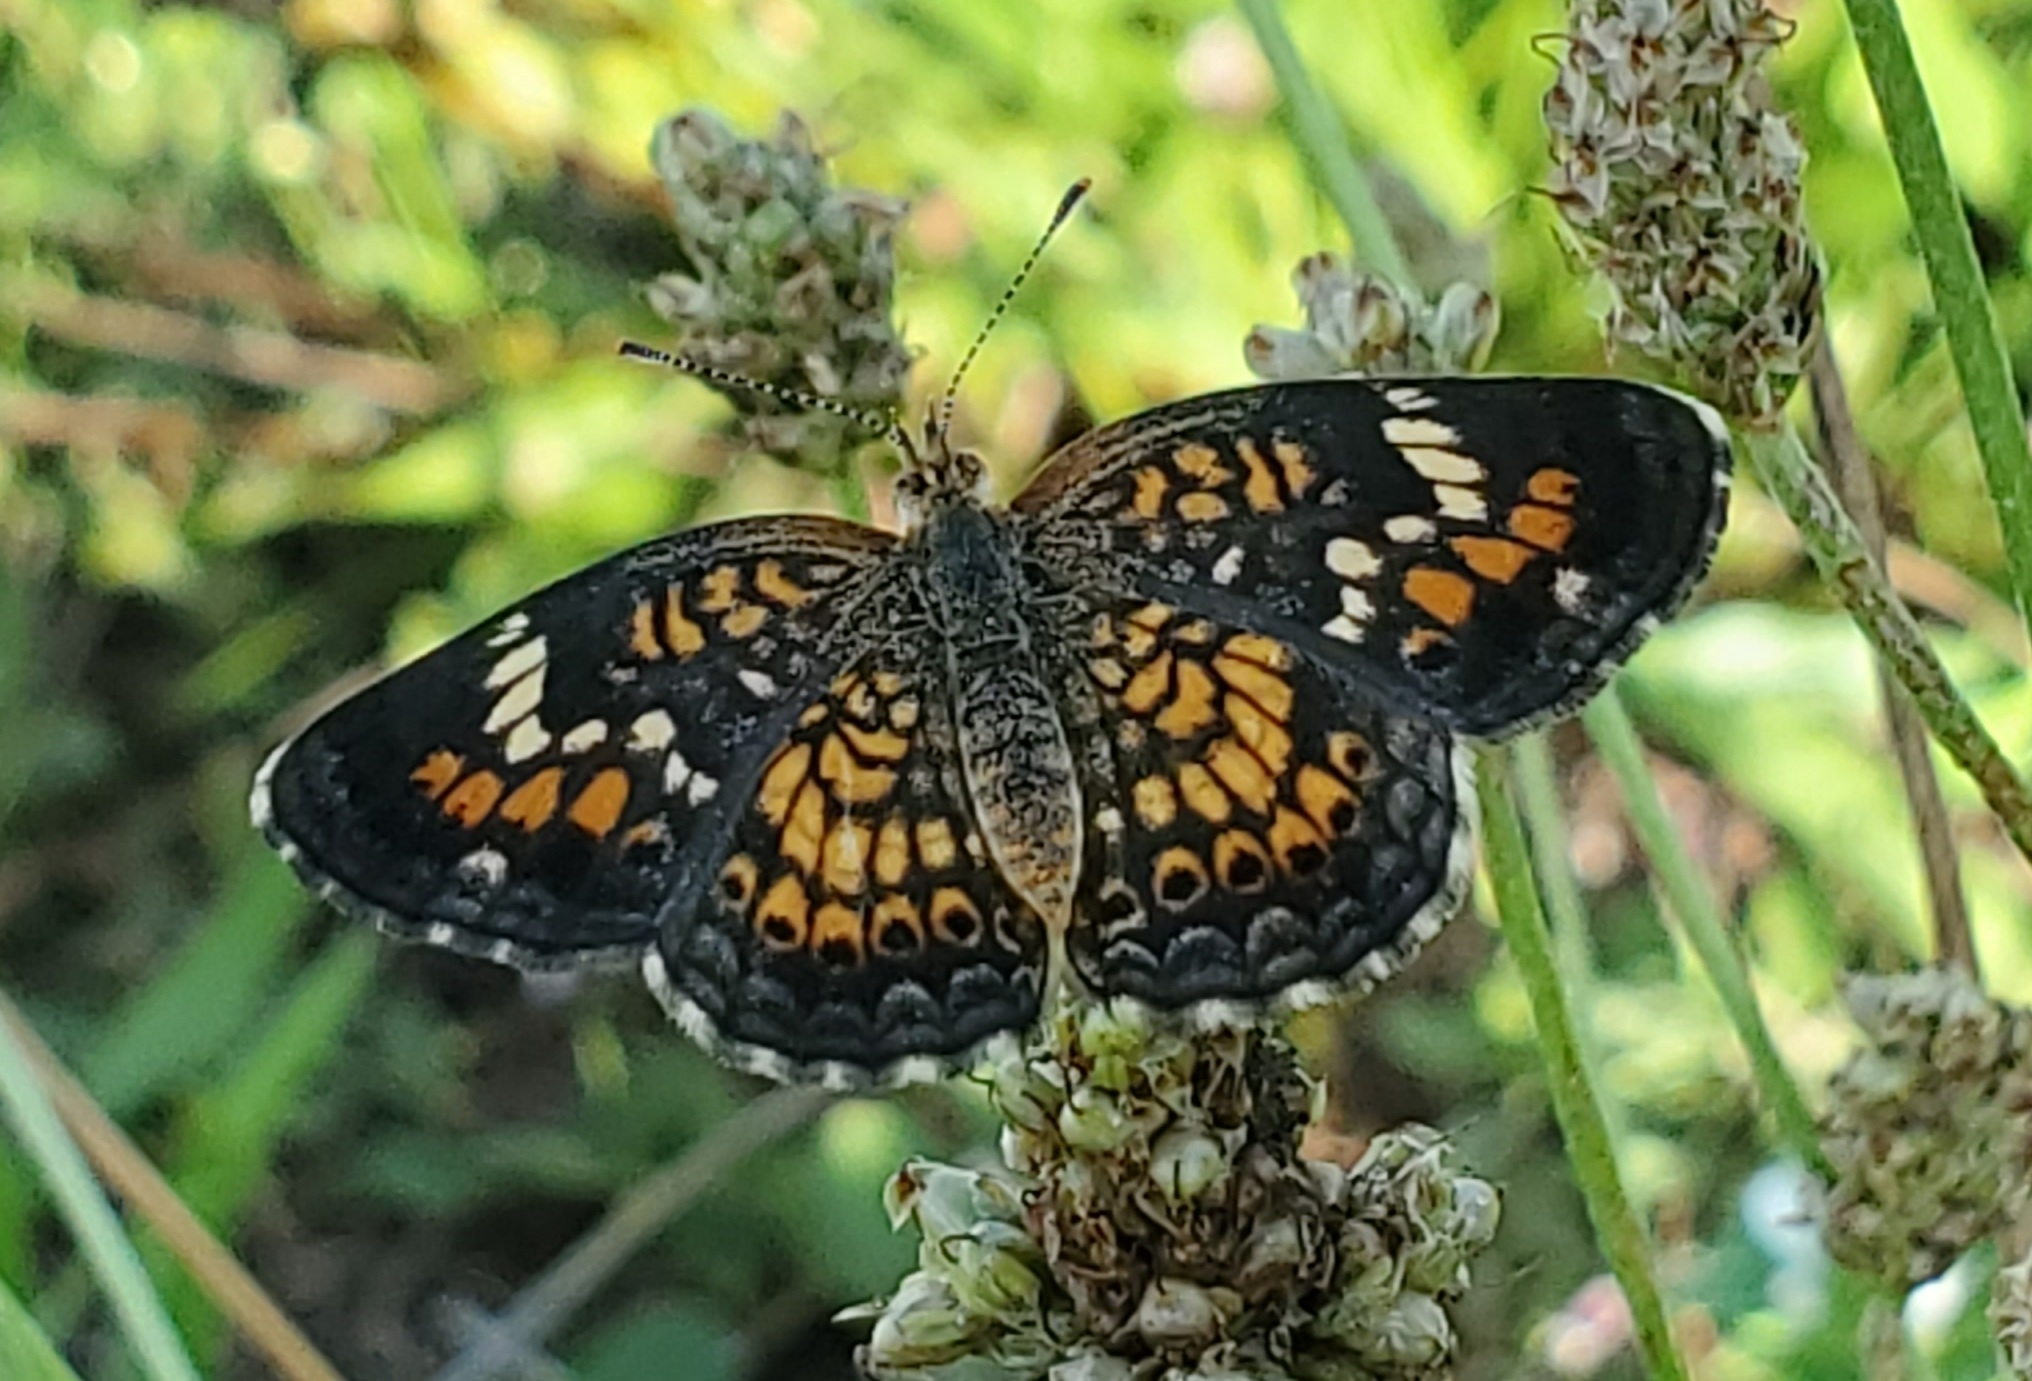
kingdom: Animalia
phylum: Arthropoda
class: Insecta
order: Lepidoptera
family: Nymphalidae
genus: Phyciodes
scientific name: Phyciodes phaon
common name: Phaon crescent
